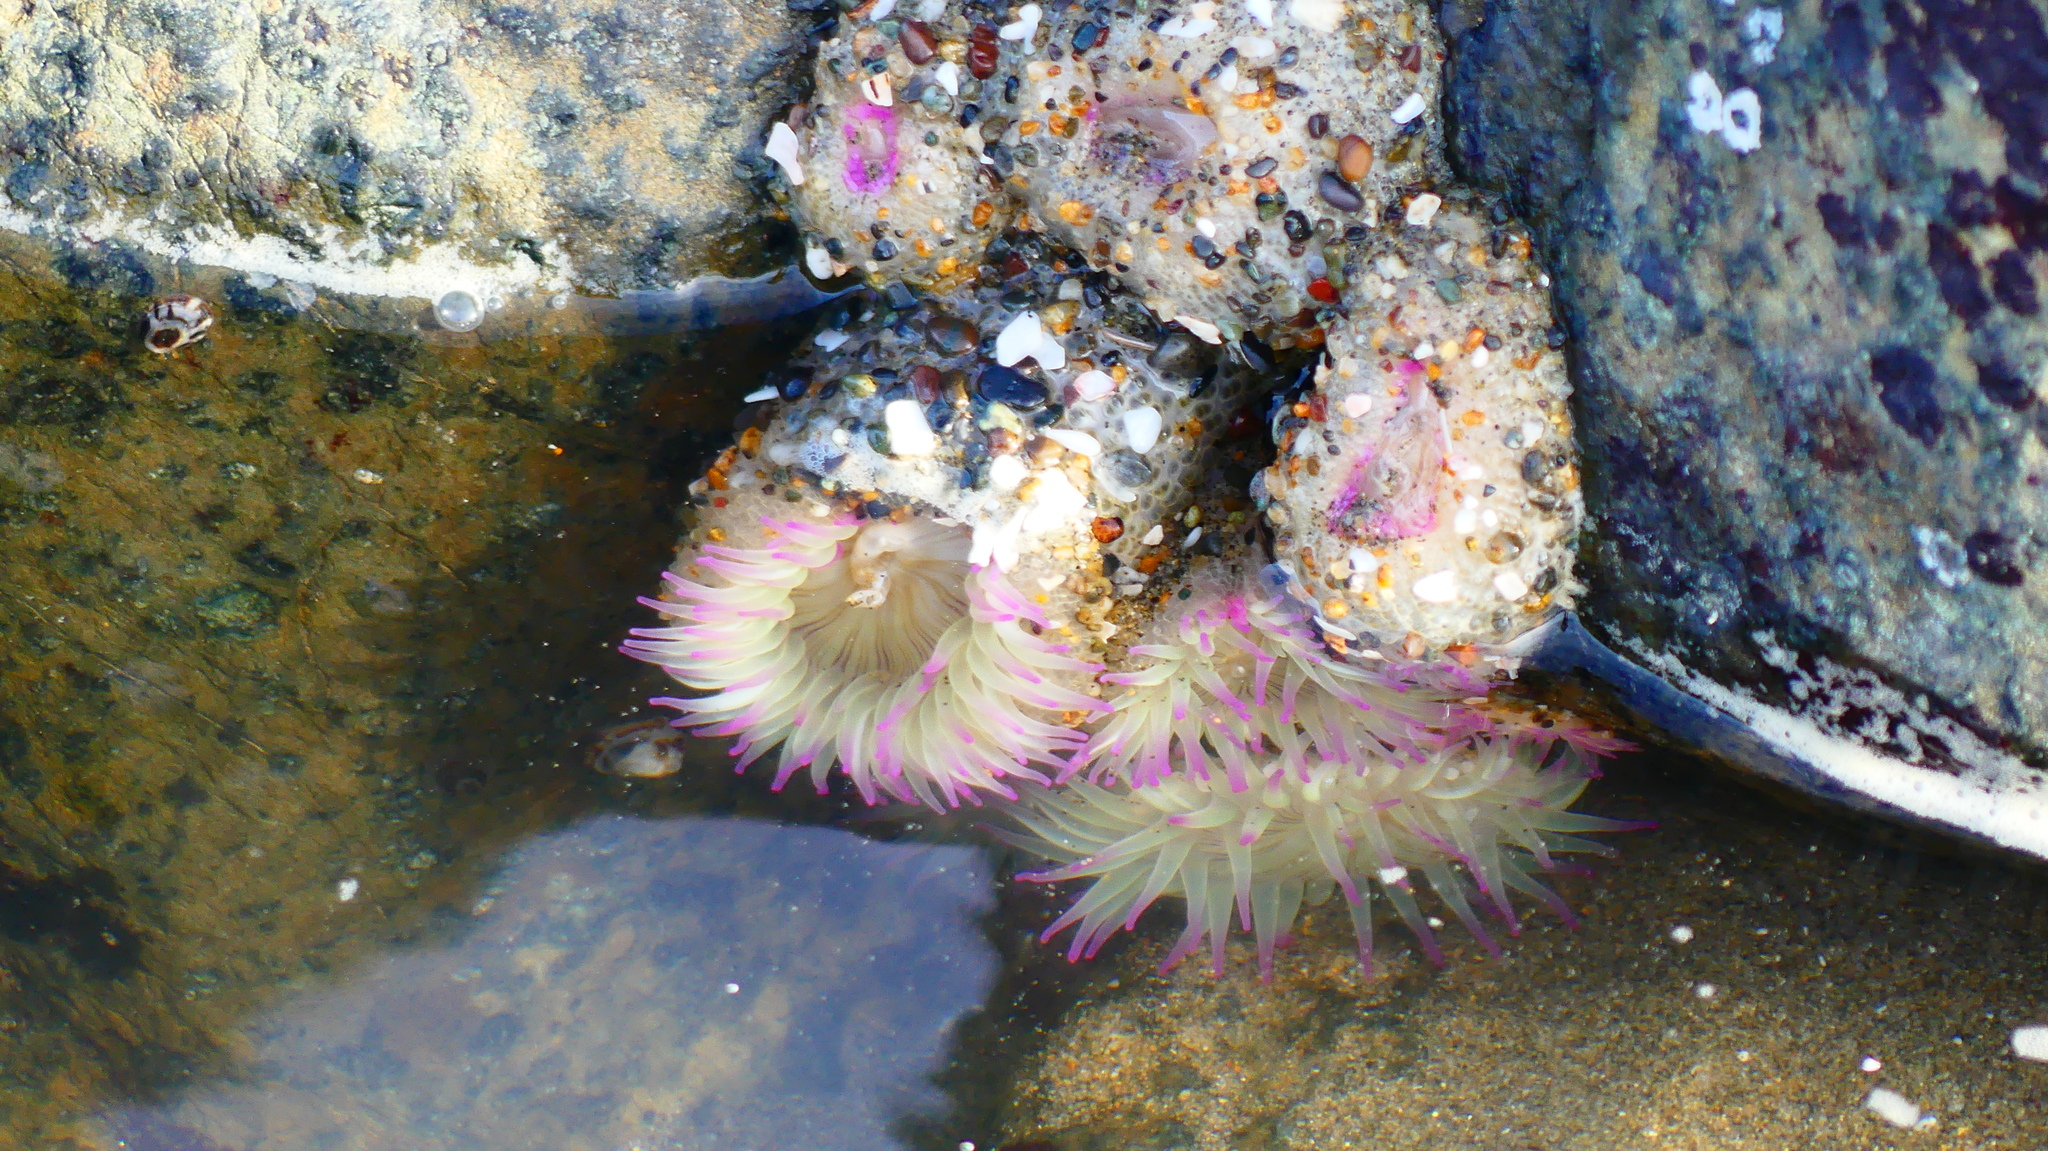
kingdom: Animalia
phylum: Cnidaria
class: Anthozoa
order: Actiniaria
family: Actiniidae
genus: Anthopleura
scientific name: Anthopleura elegantissima
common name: Clonal anemone
